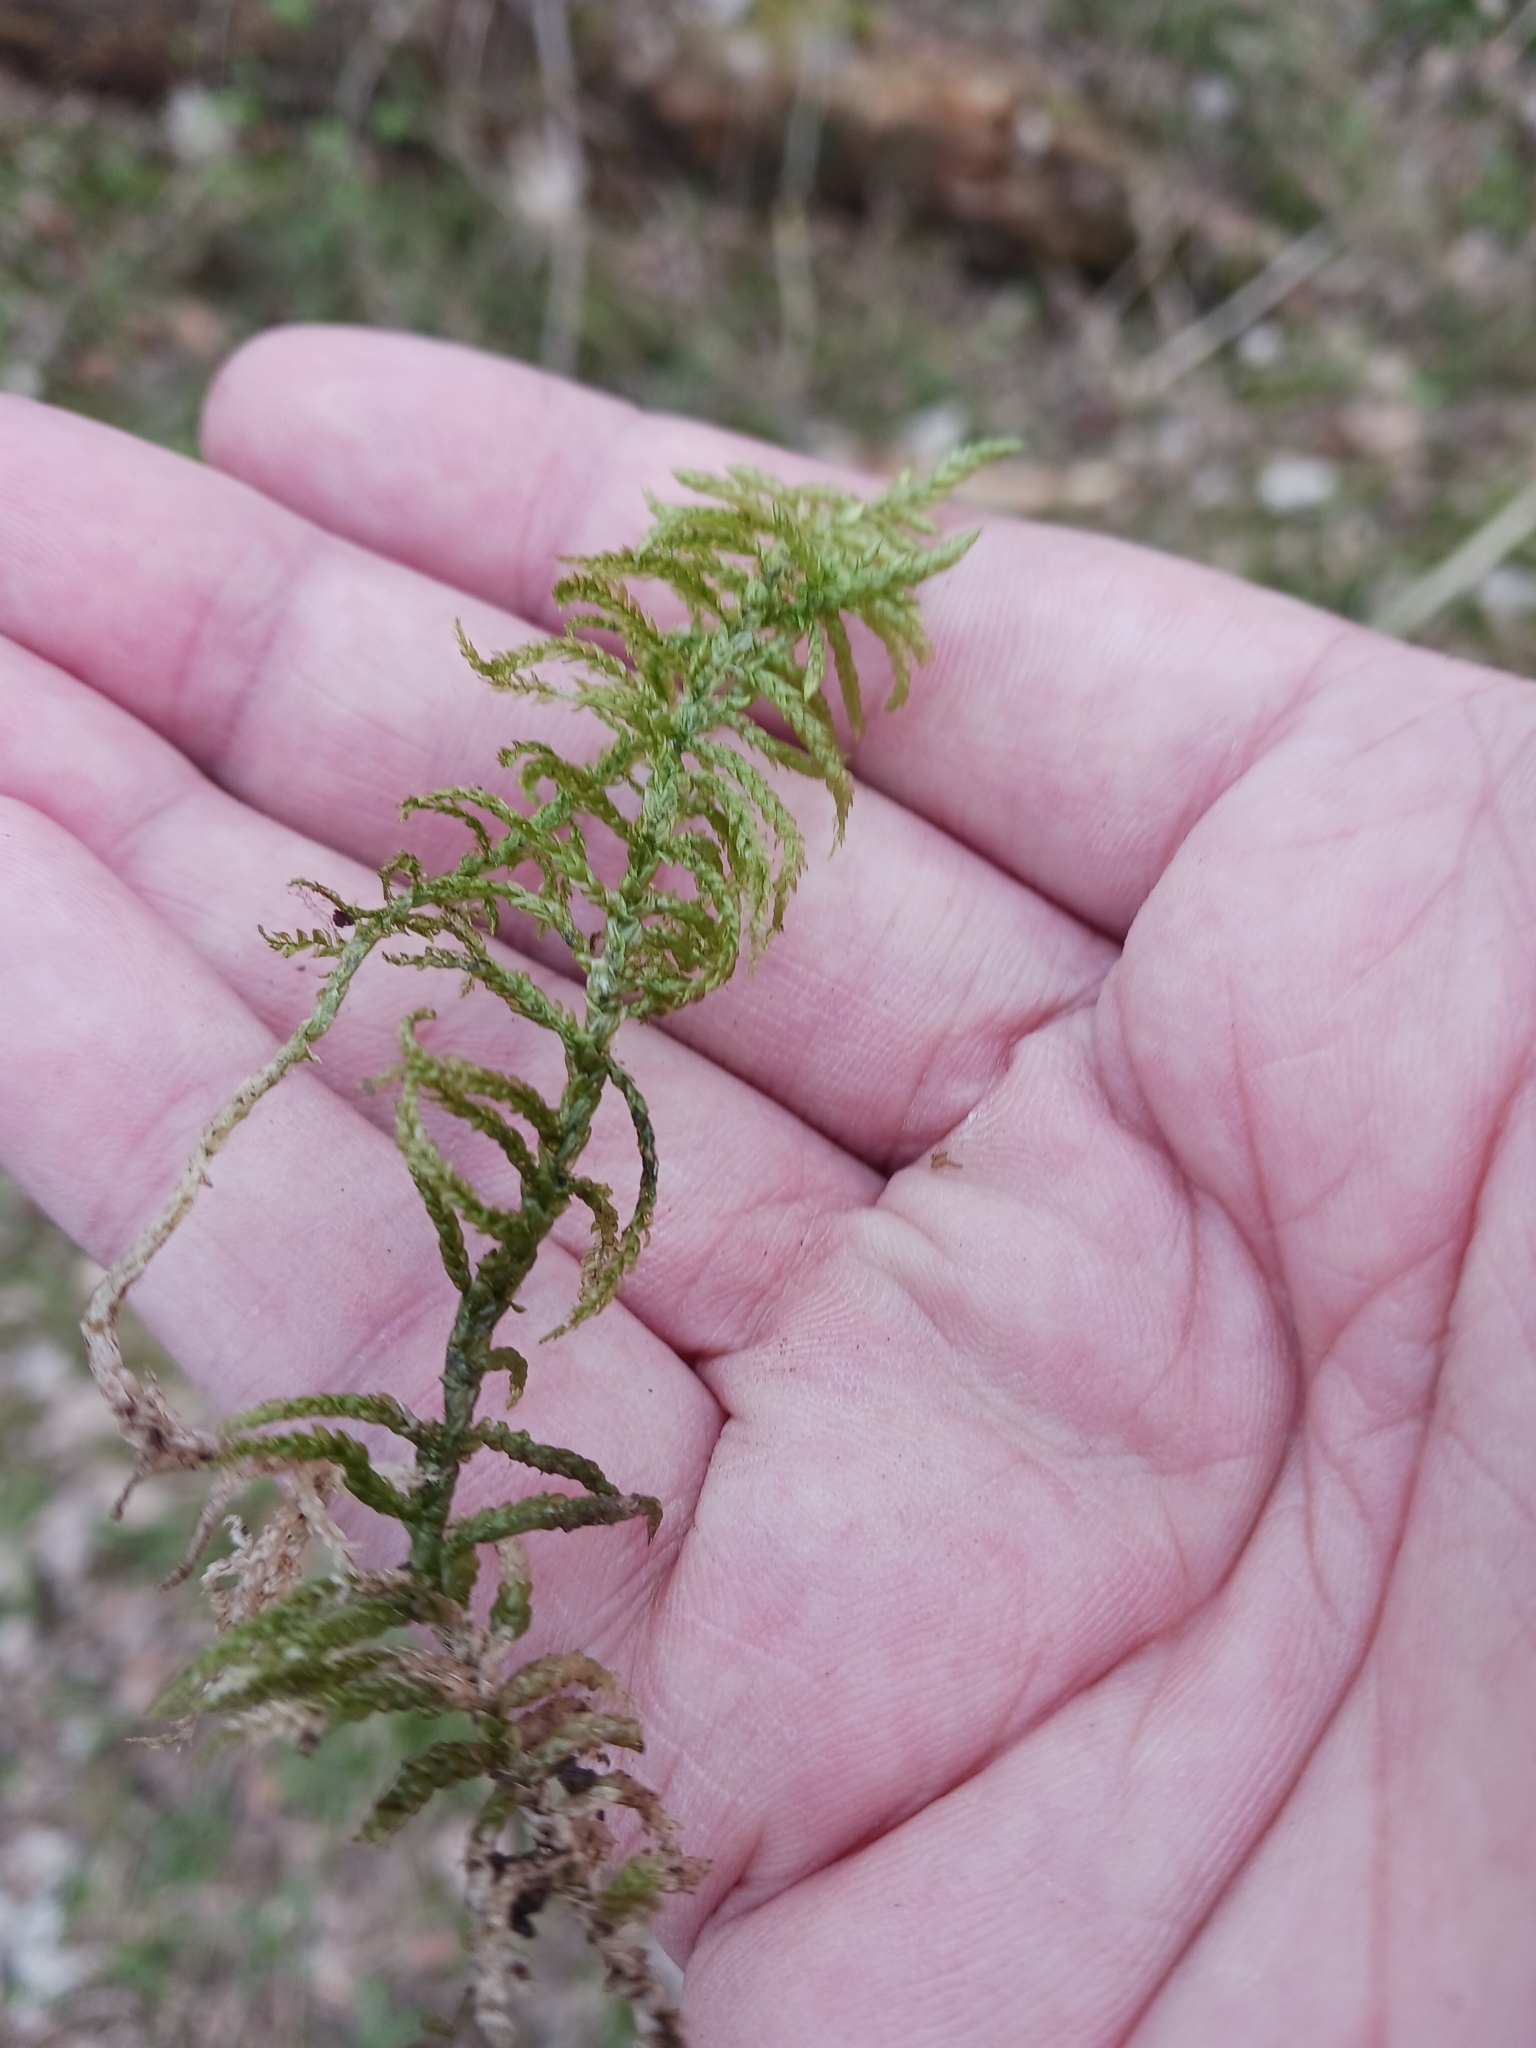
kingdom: Plantae
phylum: Bryophyta
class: Bryopsida
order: Hypnales
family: Brachytheciaceae
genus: Pseudoscleropodium
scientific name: Pseudoscleropodium purum
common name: Neat feather-moss
